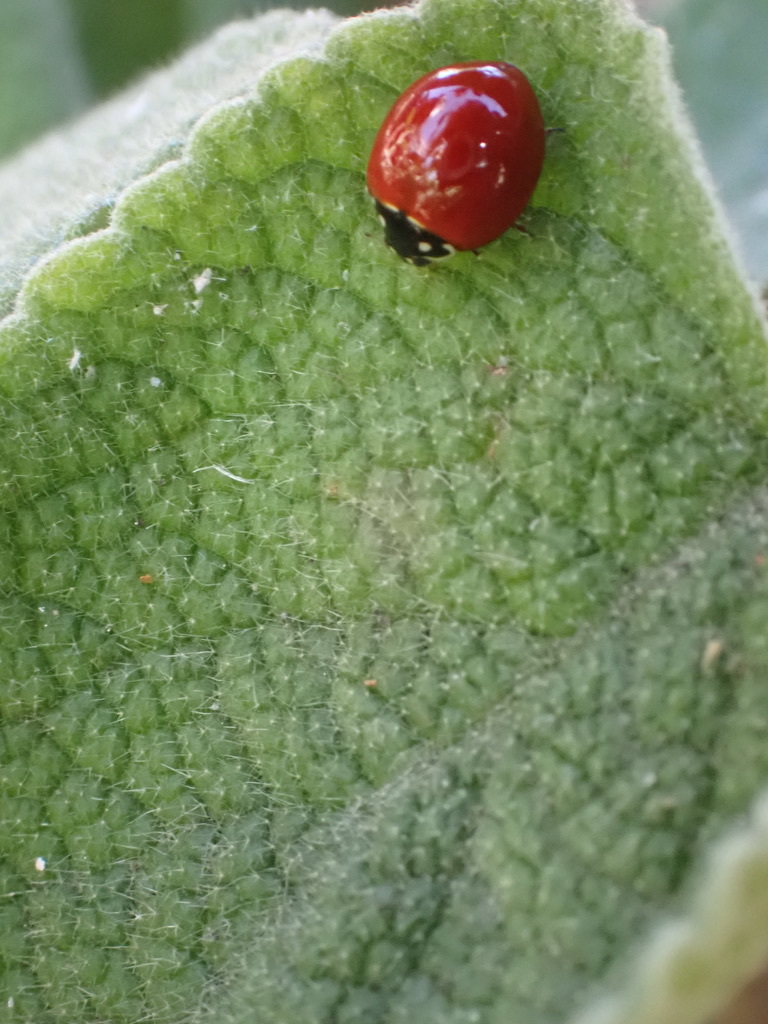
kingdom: Animalia
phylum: Arthropoda
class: Insecta
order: Coleoptera
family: Coccinellidae
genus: Cycloneda
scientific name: Cycloneda sanguinea
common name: Ladybird beetle
